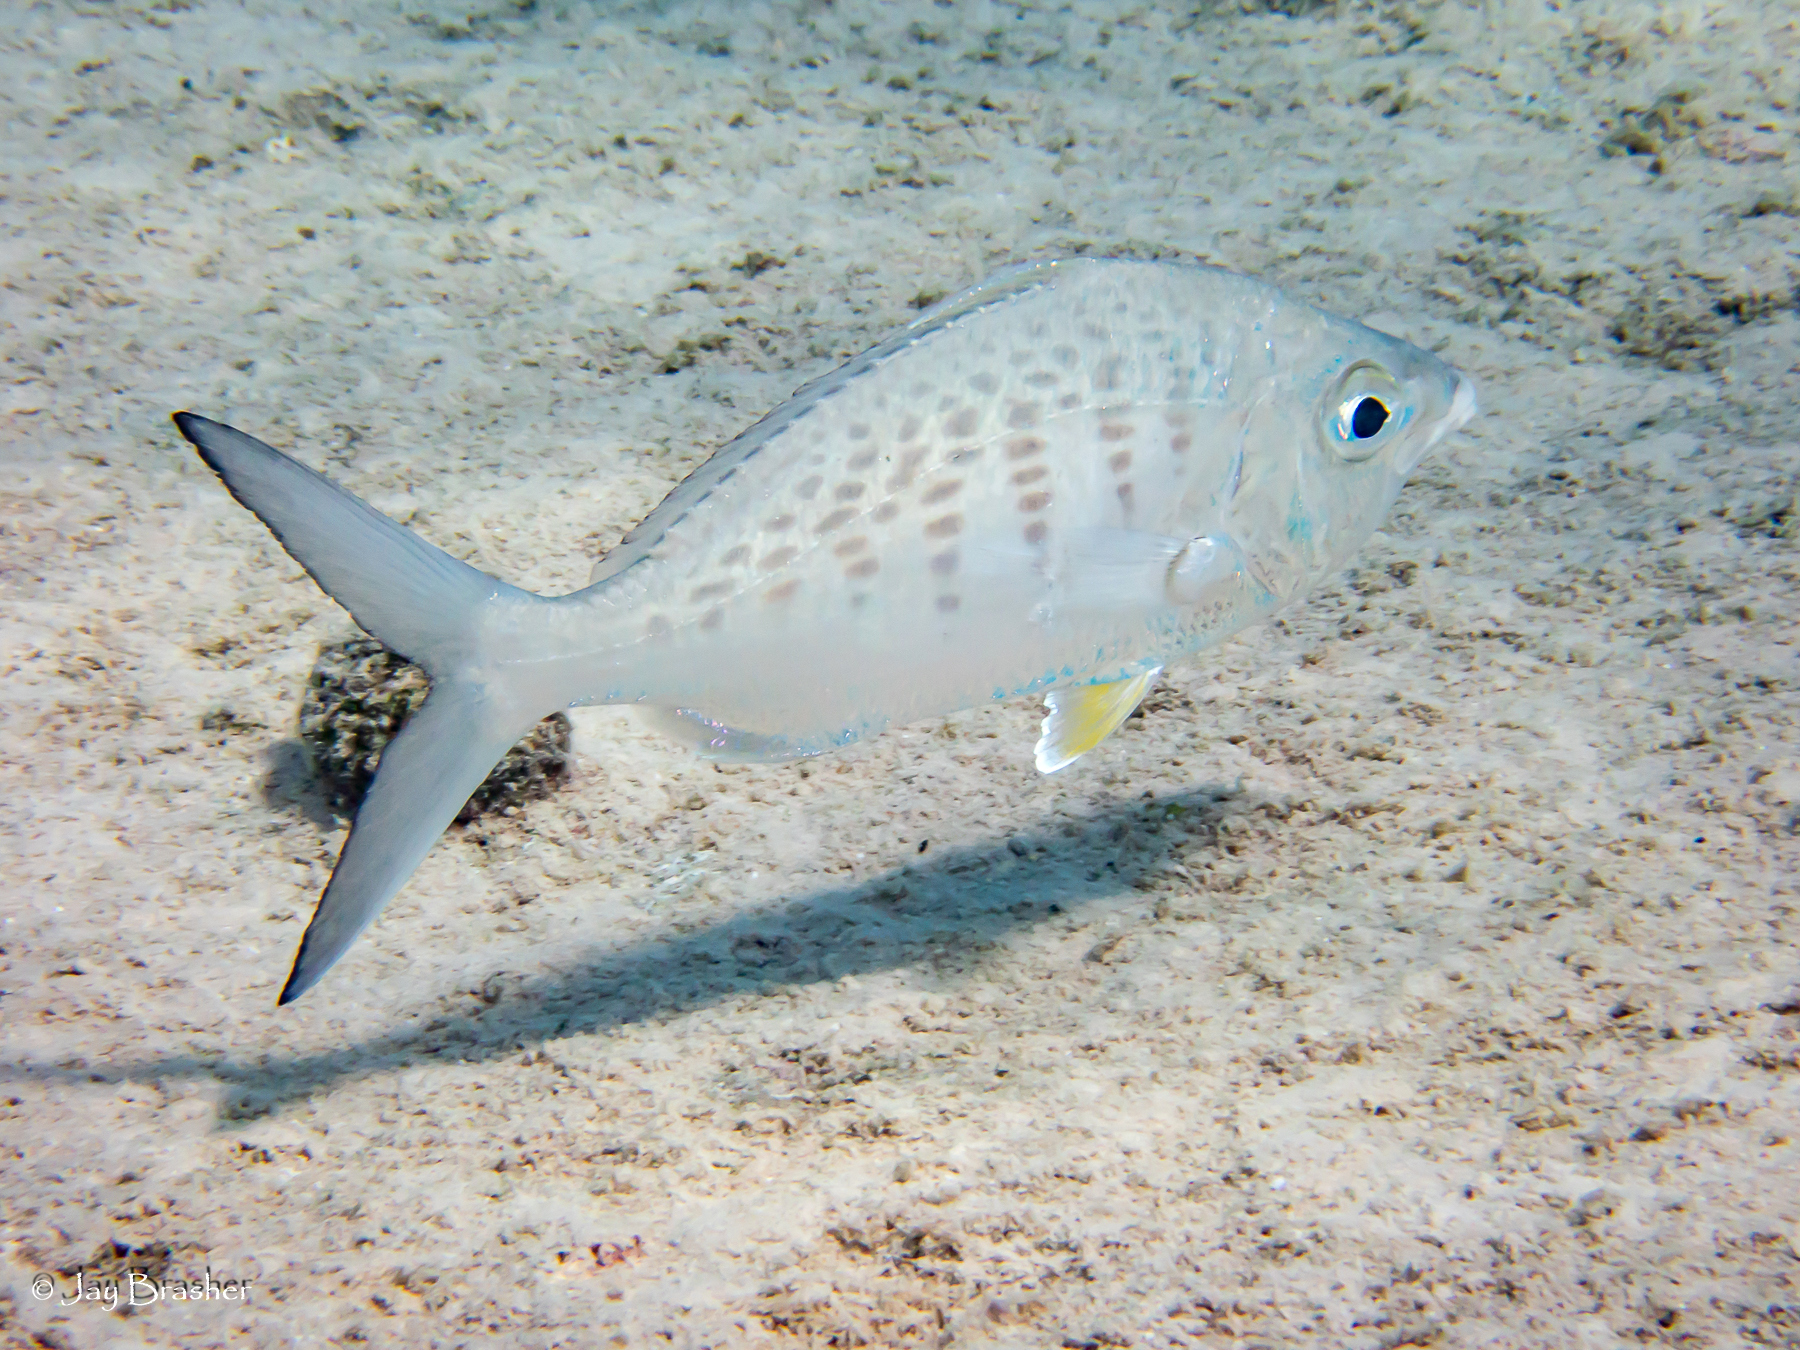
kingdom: Animalia
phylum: Chordata
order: Perciformes
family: Gerreidae
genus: Gerres
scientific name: Gerres cinereus
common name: Hedow
